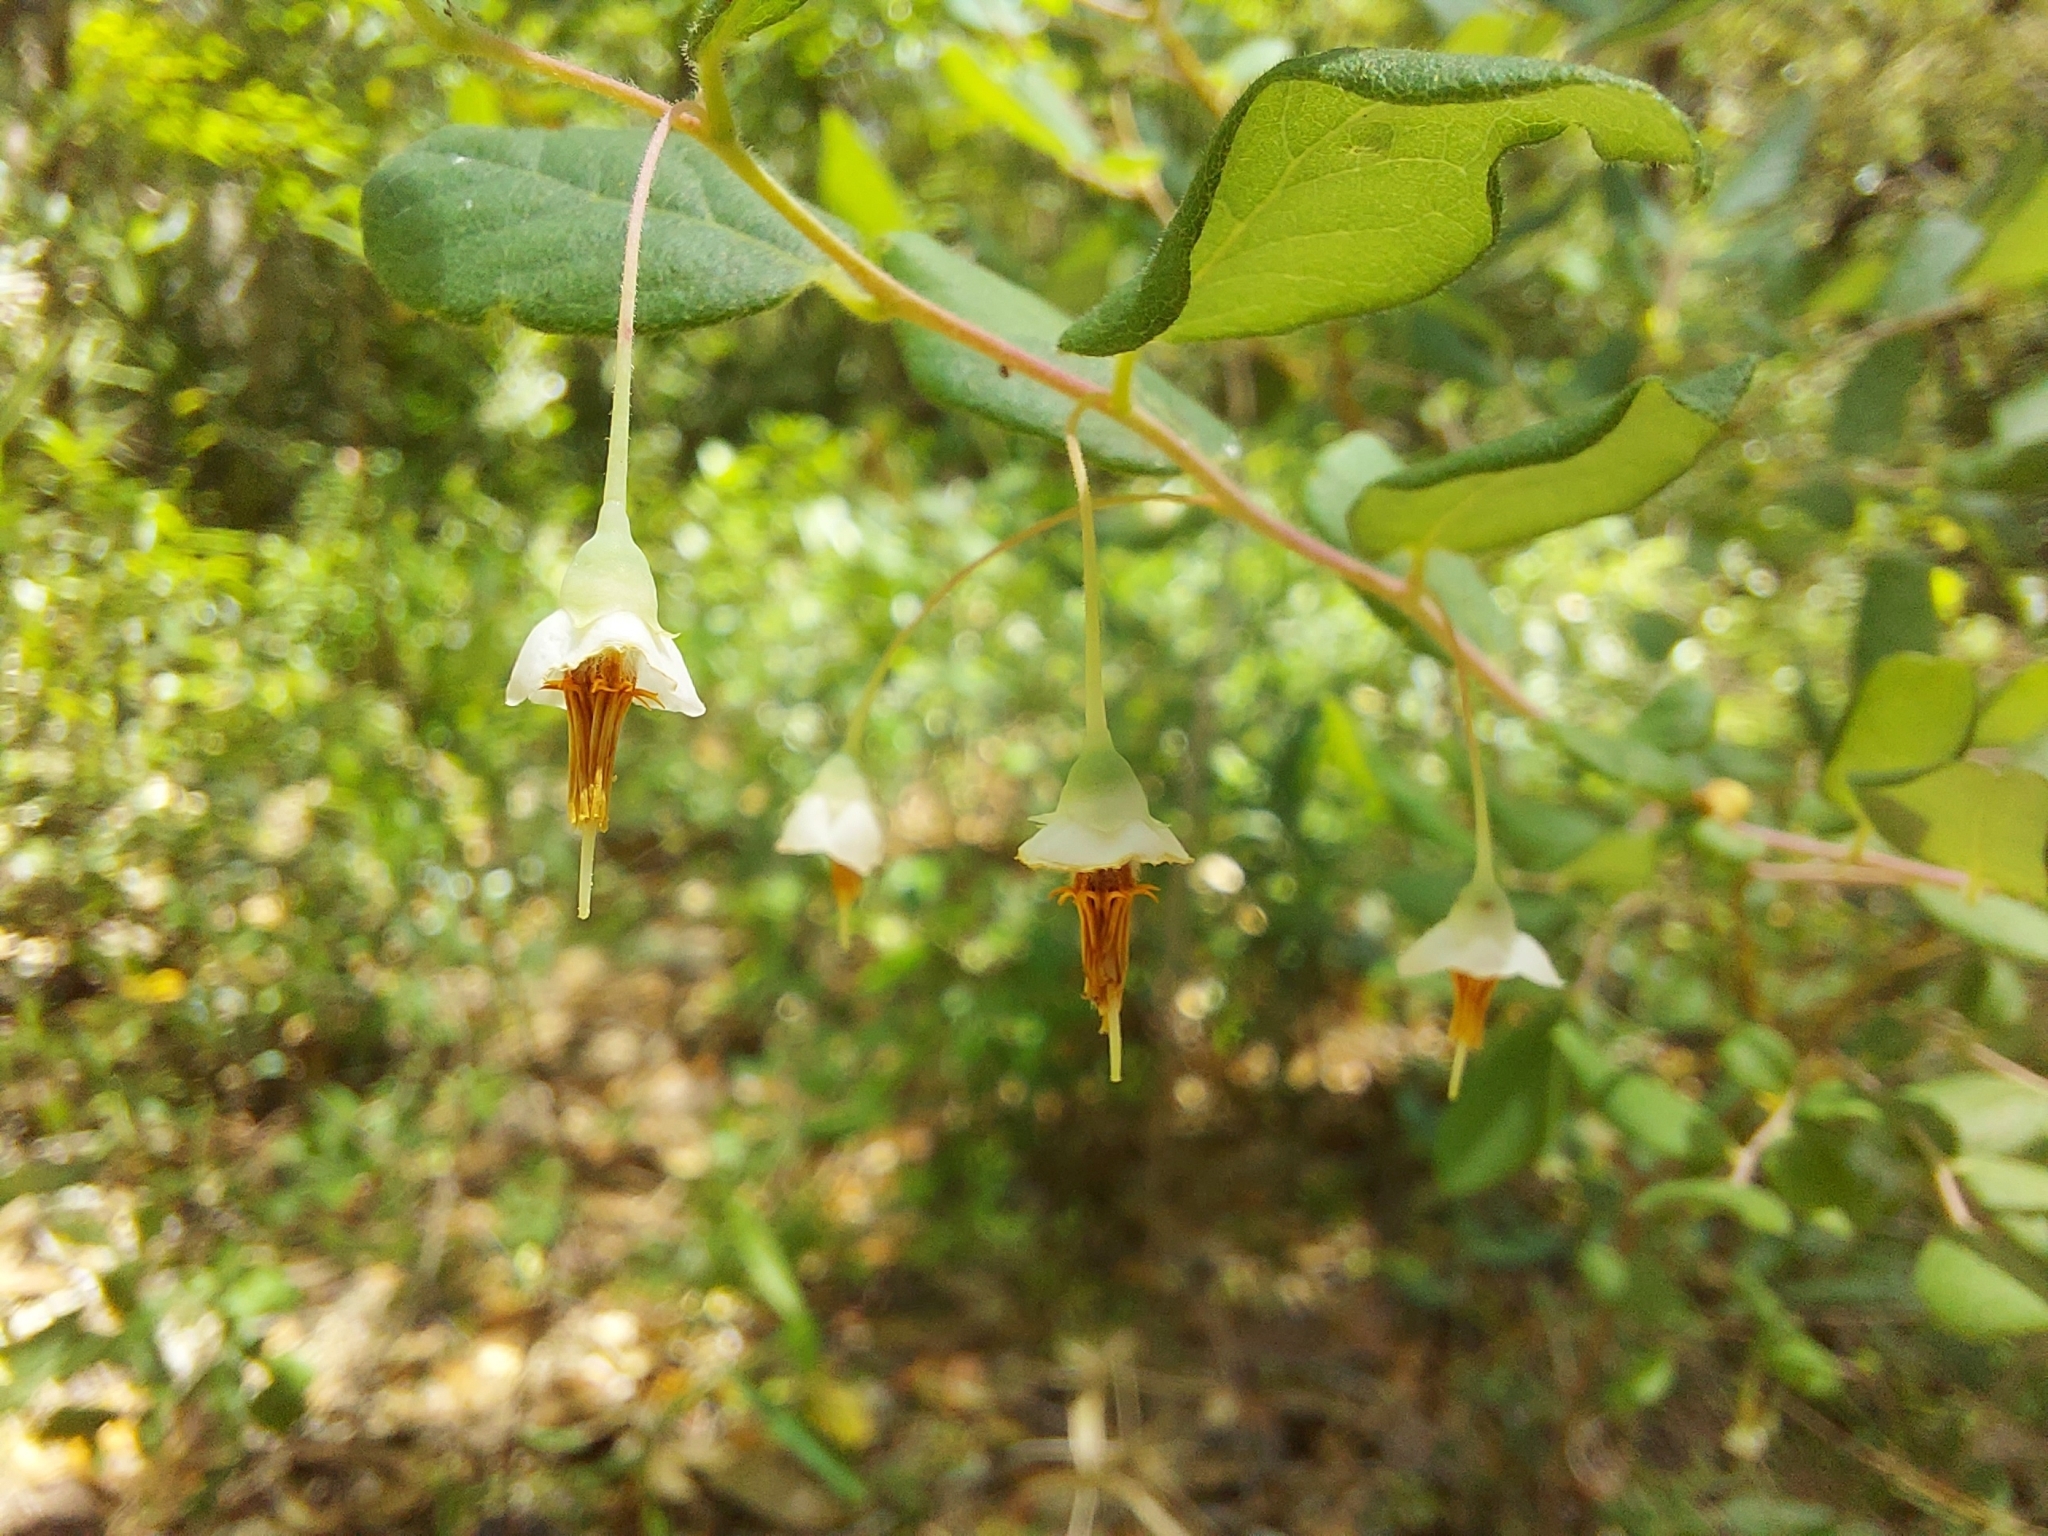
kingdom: Plantae
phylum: Tracheophyta
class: Magnoliopsida
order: Ericales
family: Ericaceae
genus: Vaccinium
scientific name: Vaccinium stamineum
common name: Deerberry
